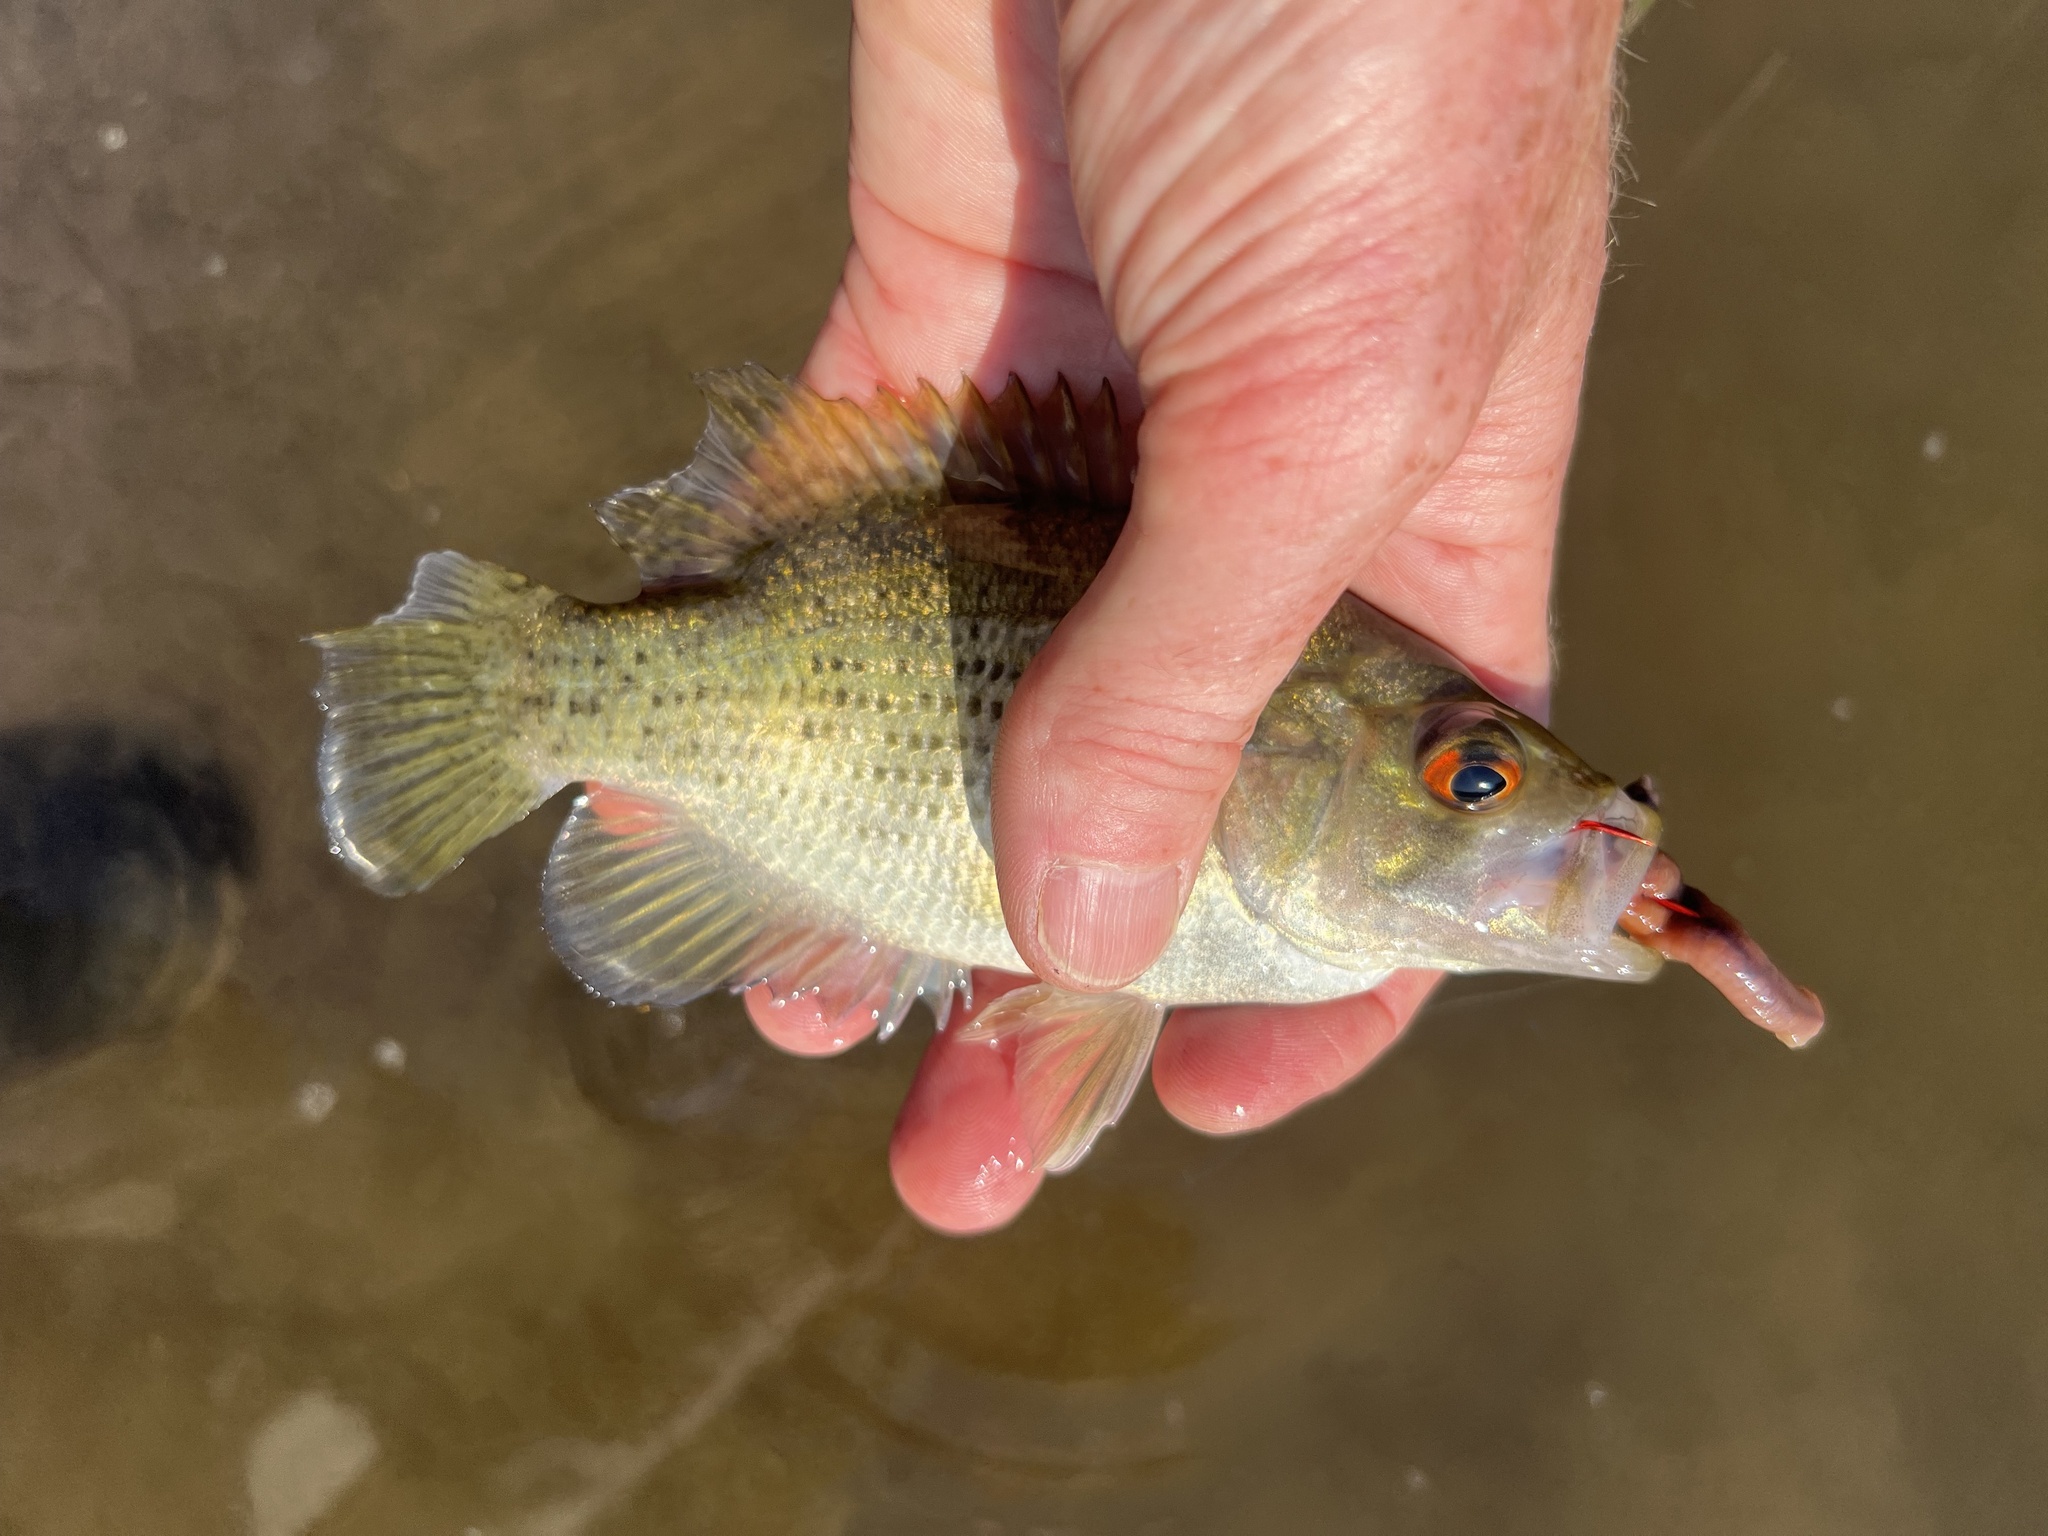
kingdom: Animalia
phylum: Chordata
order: Perciformes
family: Centrarchidae
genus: Ambloplites
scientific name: Ambloplites rupestris
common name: Rock bass
